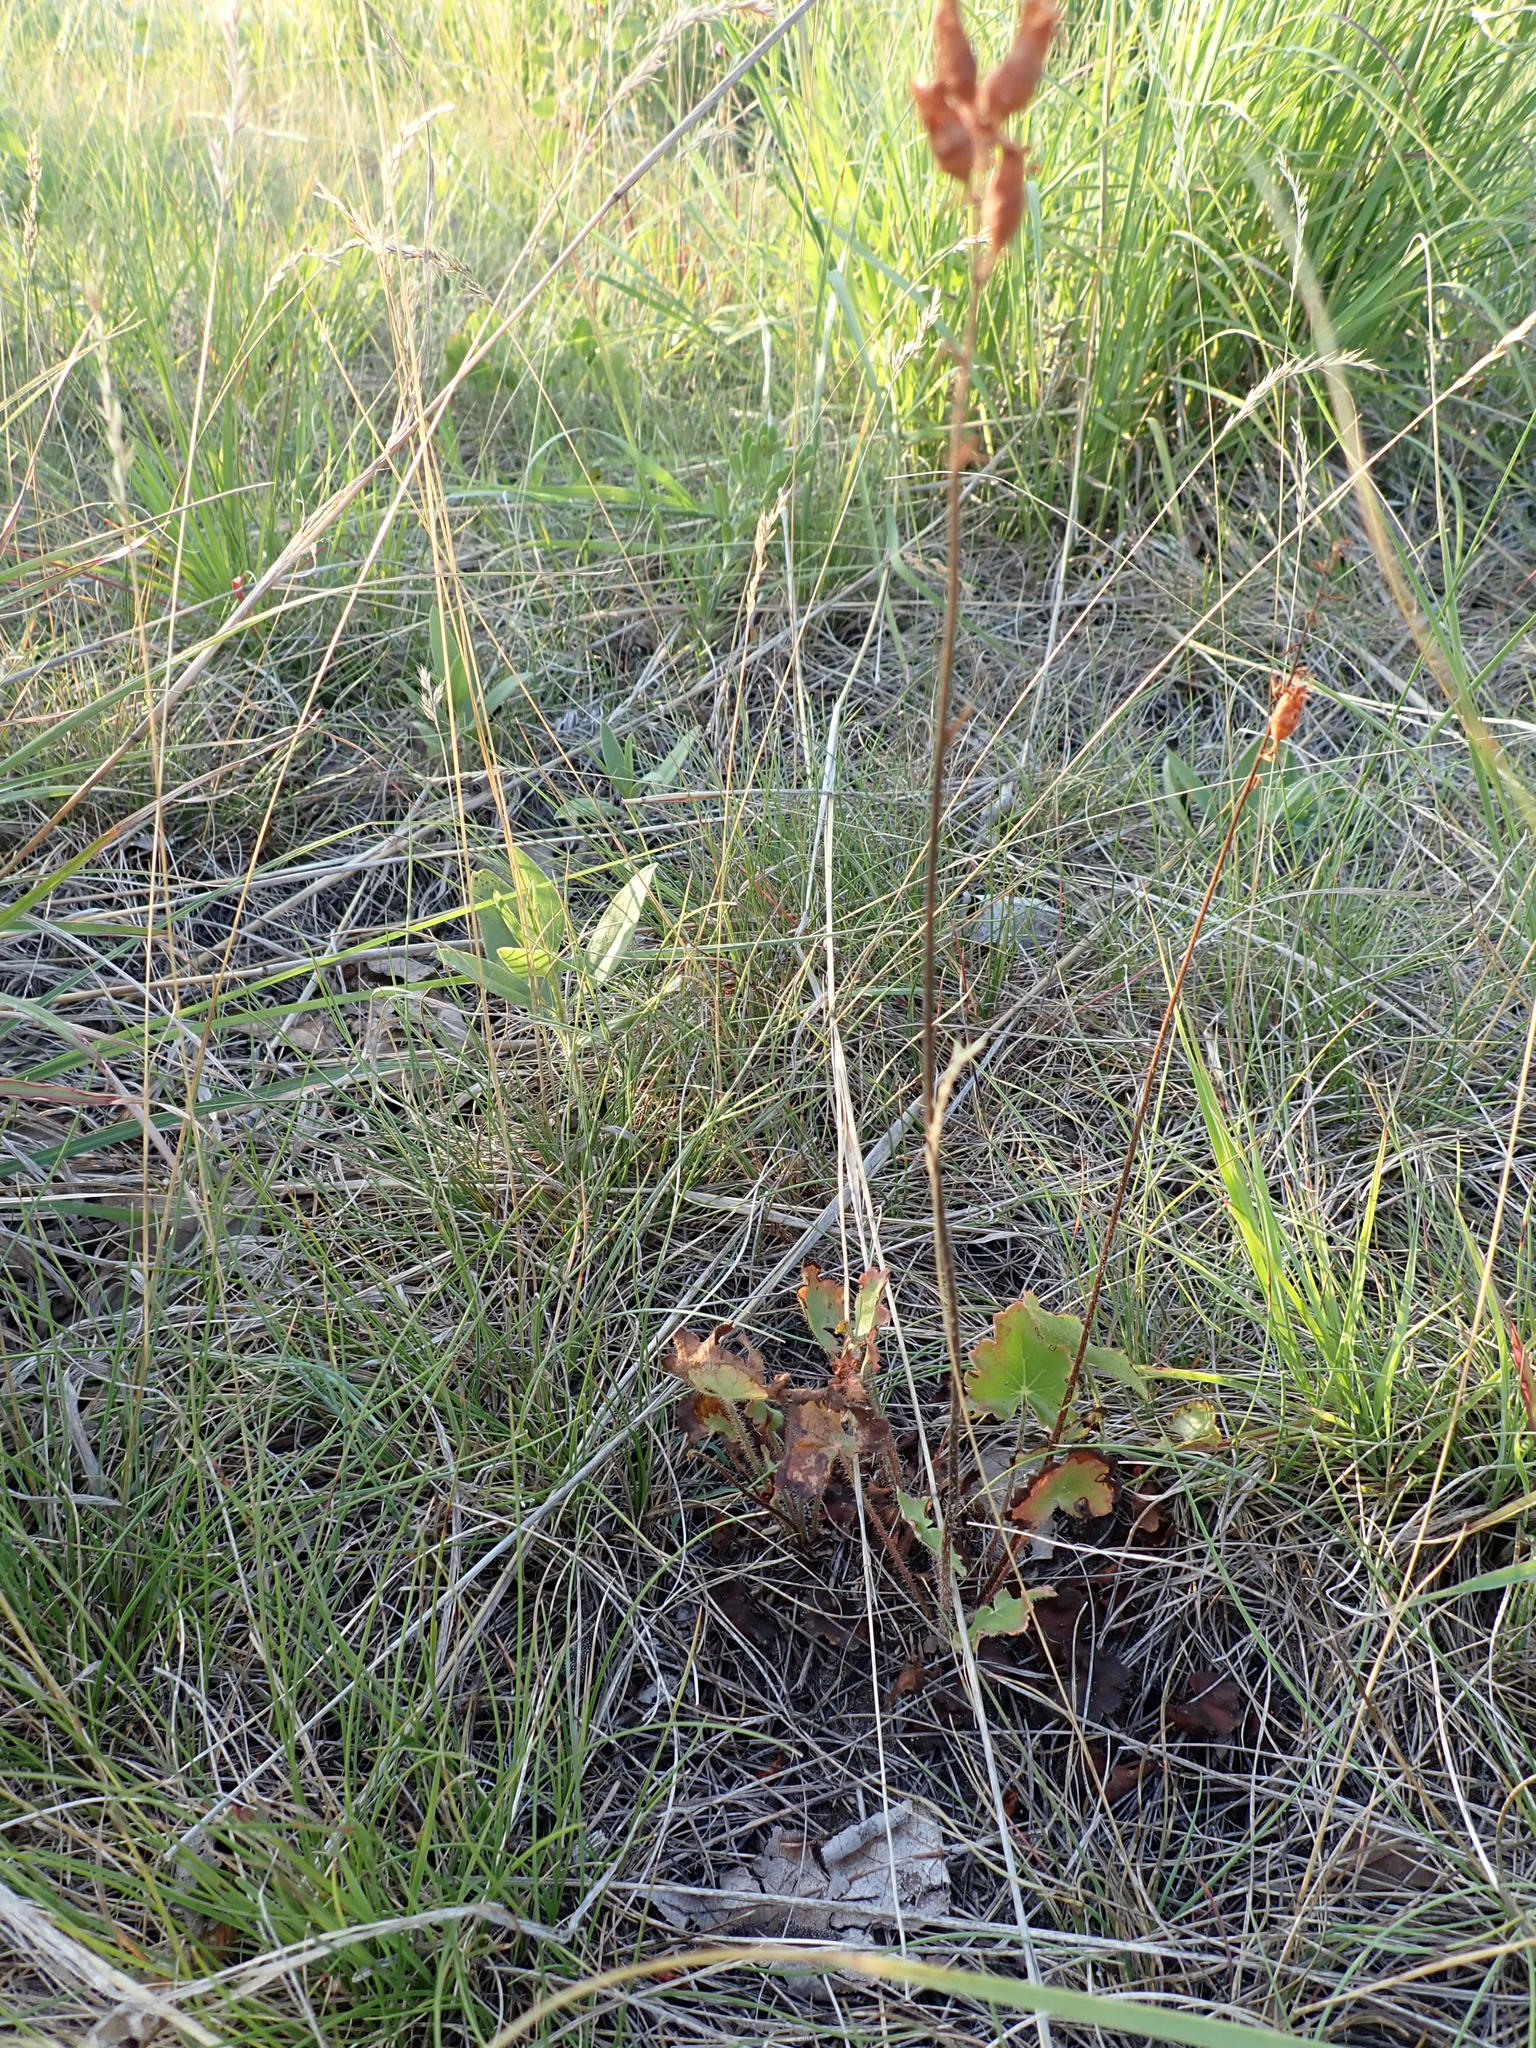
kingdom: Plantae
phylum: Tracheophyta
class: Magnoliopsida
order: Saxifragales
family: Saxifragaceae
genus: Heuchera
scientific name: Heuchera richardsonii
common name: Richardson's alumroot
